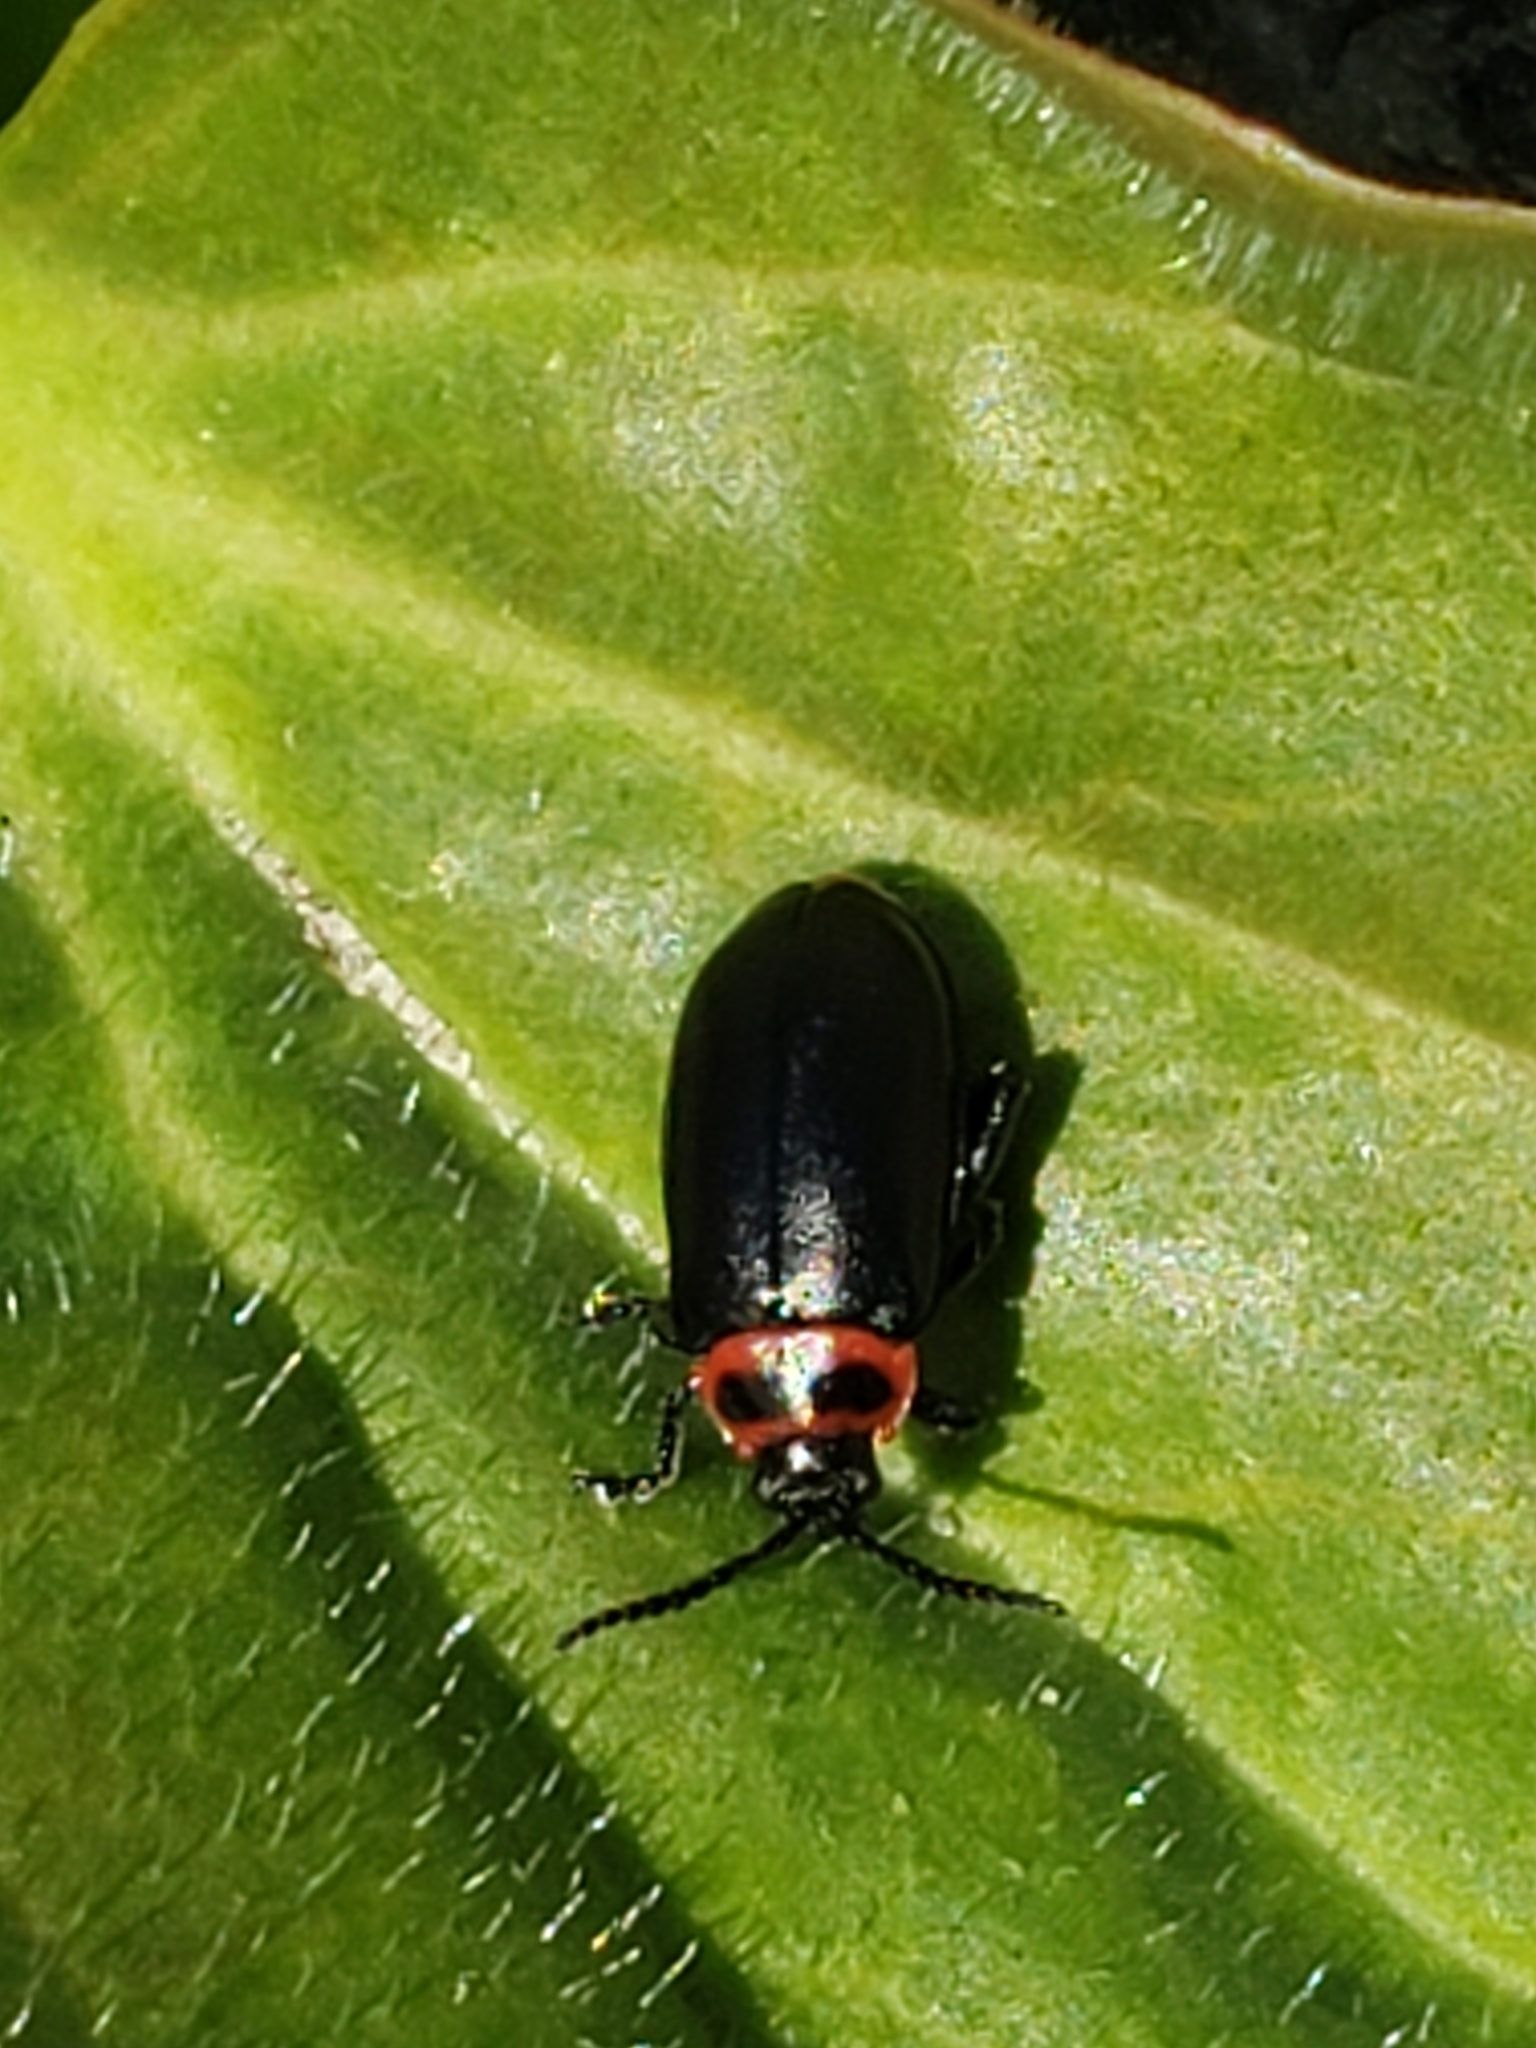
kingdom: Animalia
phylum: Arthropoda
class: Insecta
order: Coleoptera
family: Chrysomelidae
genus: Kuschelina
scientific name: Kuschelina vians
